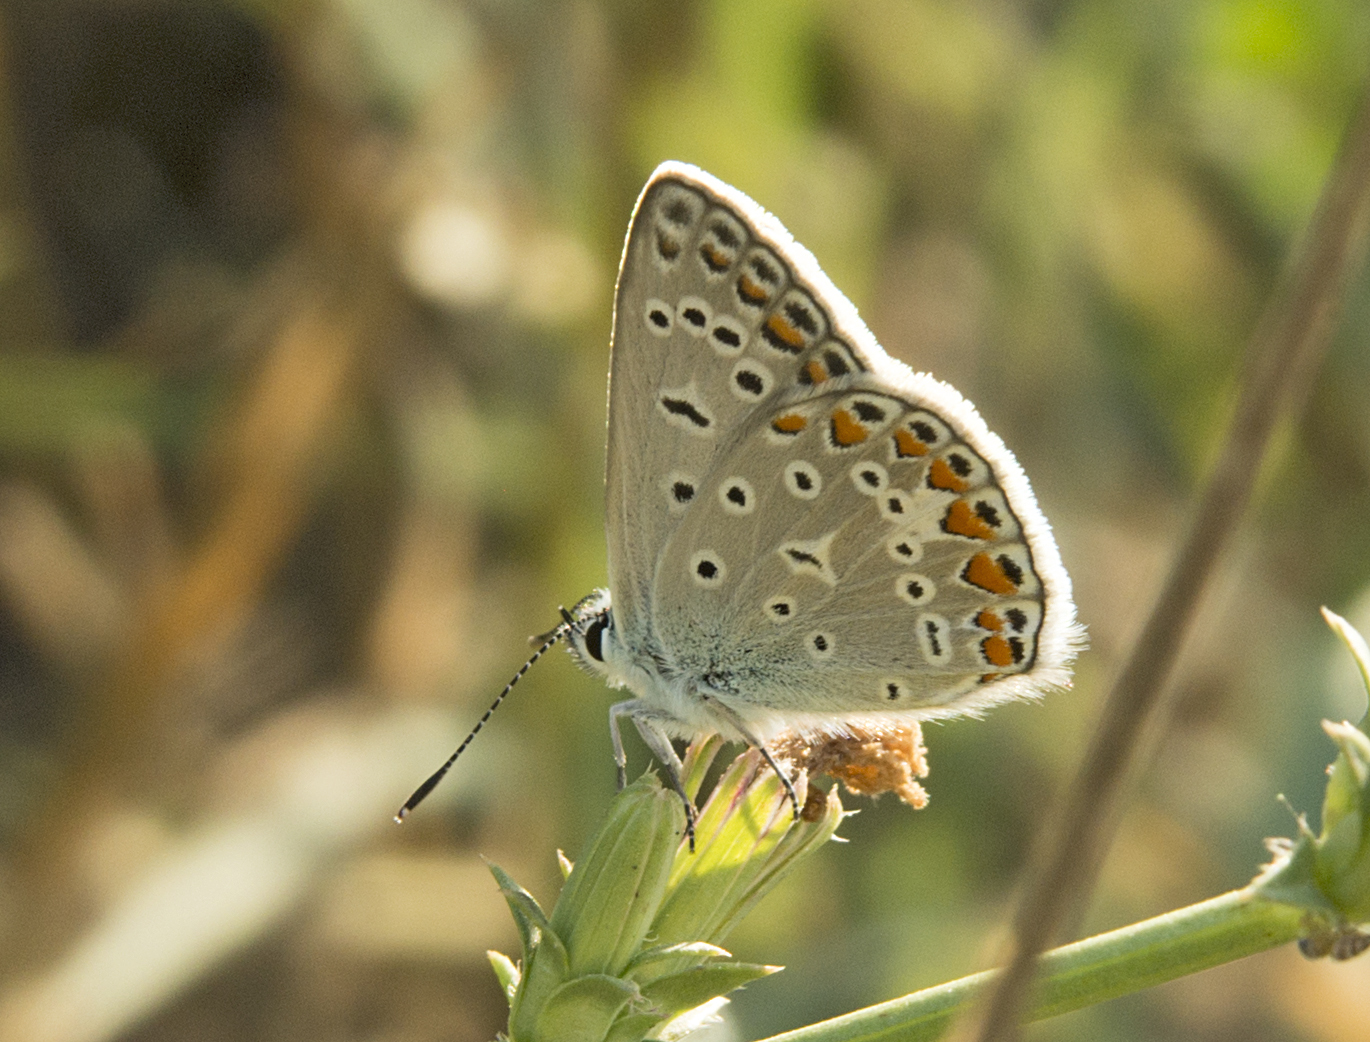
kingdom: Animalia
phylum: Arthropoda
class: Insecta
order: Lepidoptera
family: Lycaenidae
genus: Polyommatus
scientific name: Polyommatus icarus
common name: Common blue
